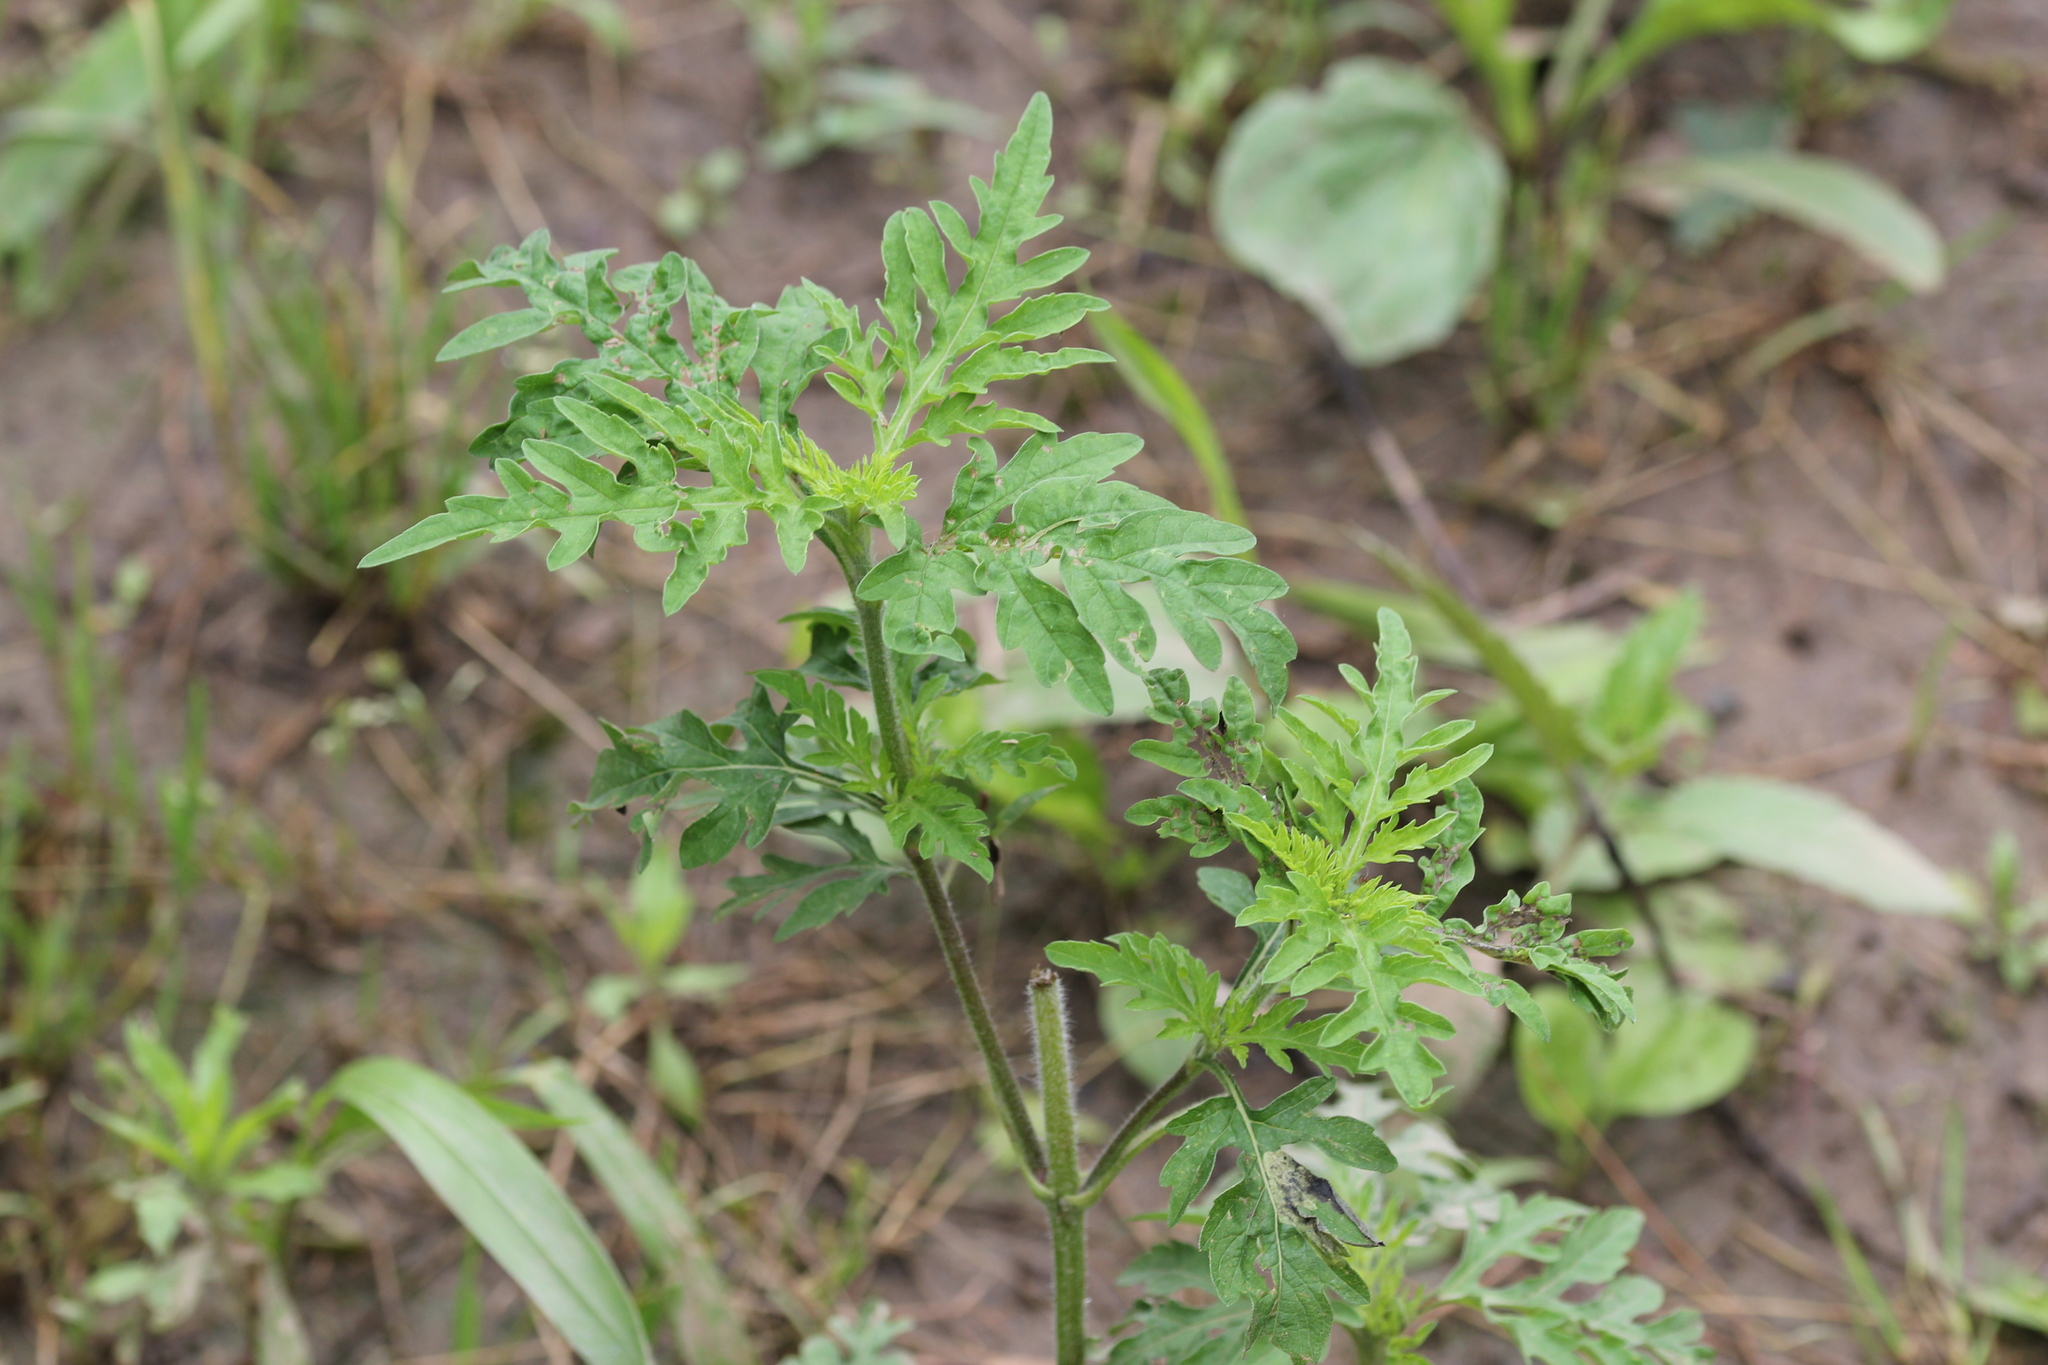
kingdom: Plantae
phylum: Tracheophyta
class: Magnoliopsida
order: Asterales
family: Asteraceae
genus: Ambrosia
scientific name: Ambrosia artemisiifolia
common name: Annual ragweed
